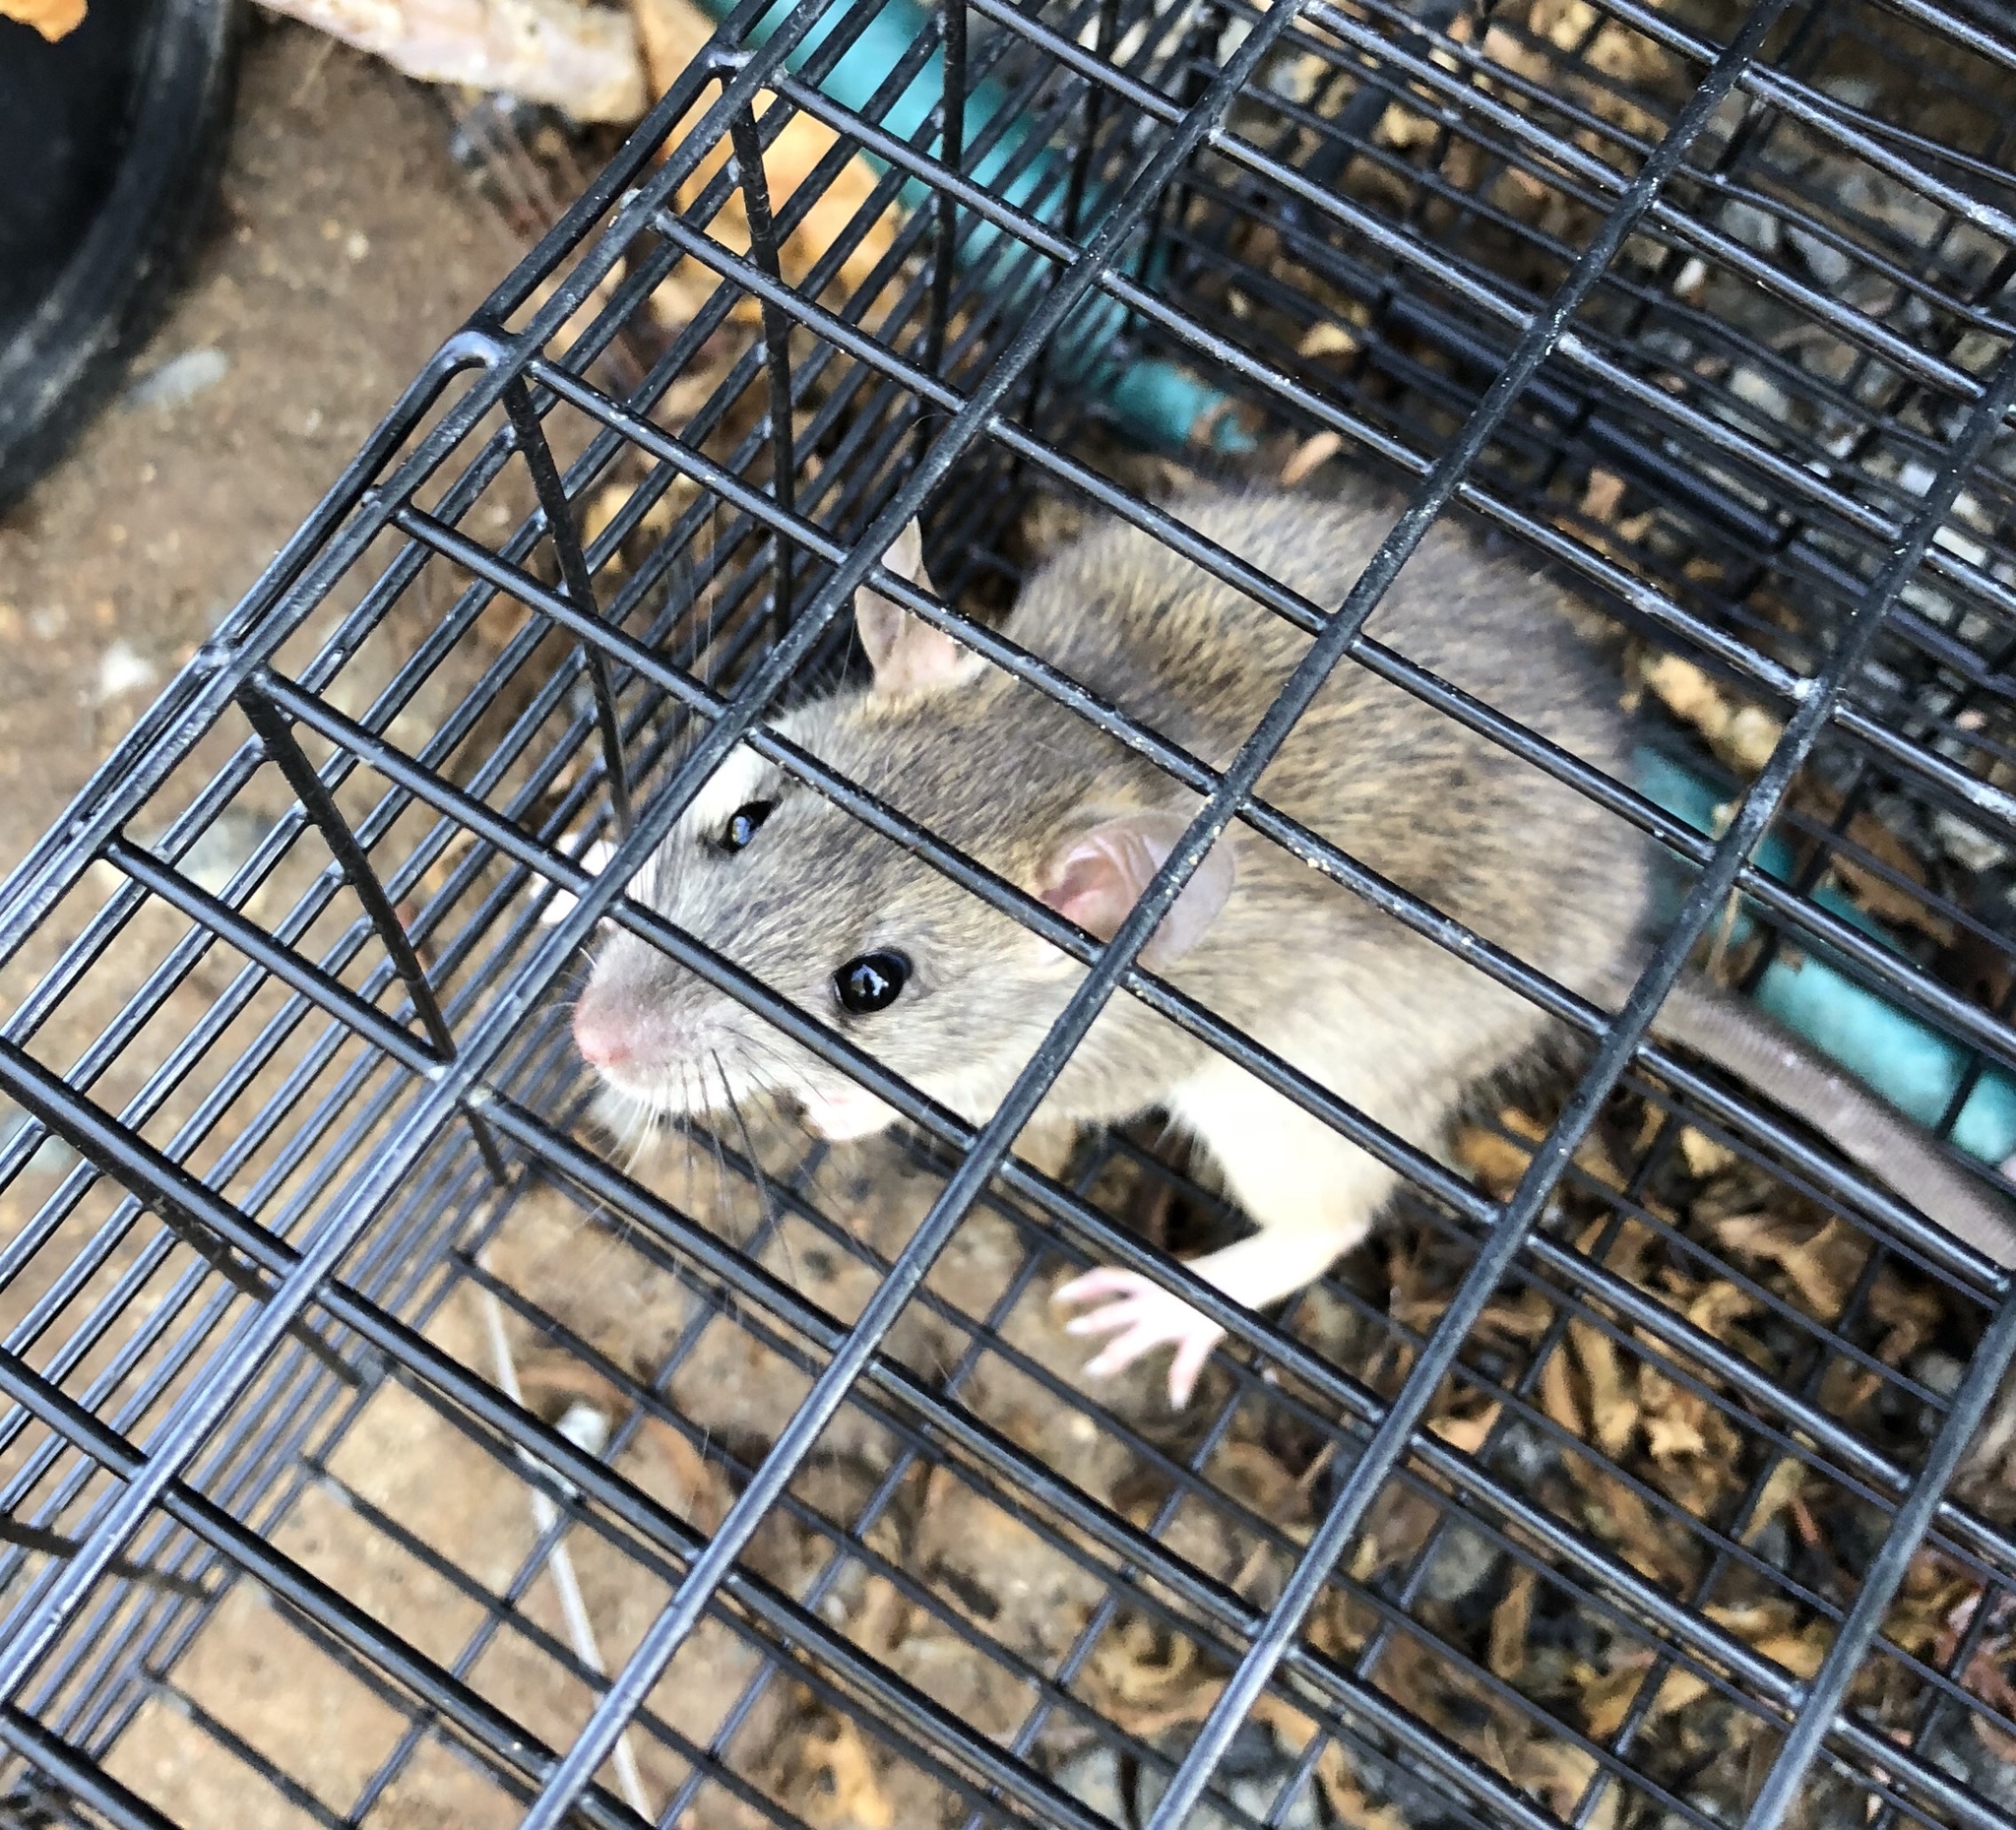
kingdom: Animalia
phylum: Chordata
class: Mammalia
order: Rodentia
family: Muridae
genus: Rattus
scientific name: Rattus rattus
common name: Black rat
